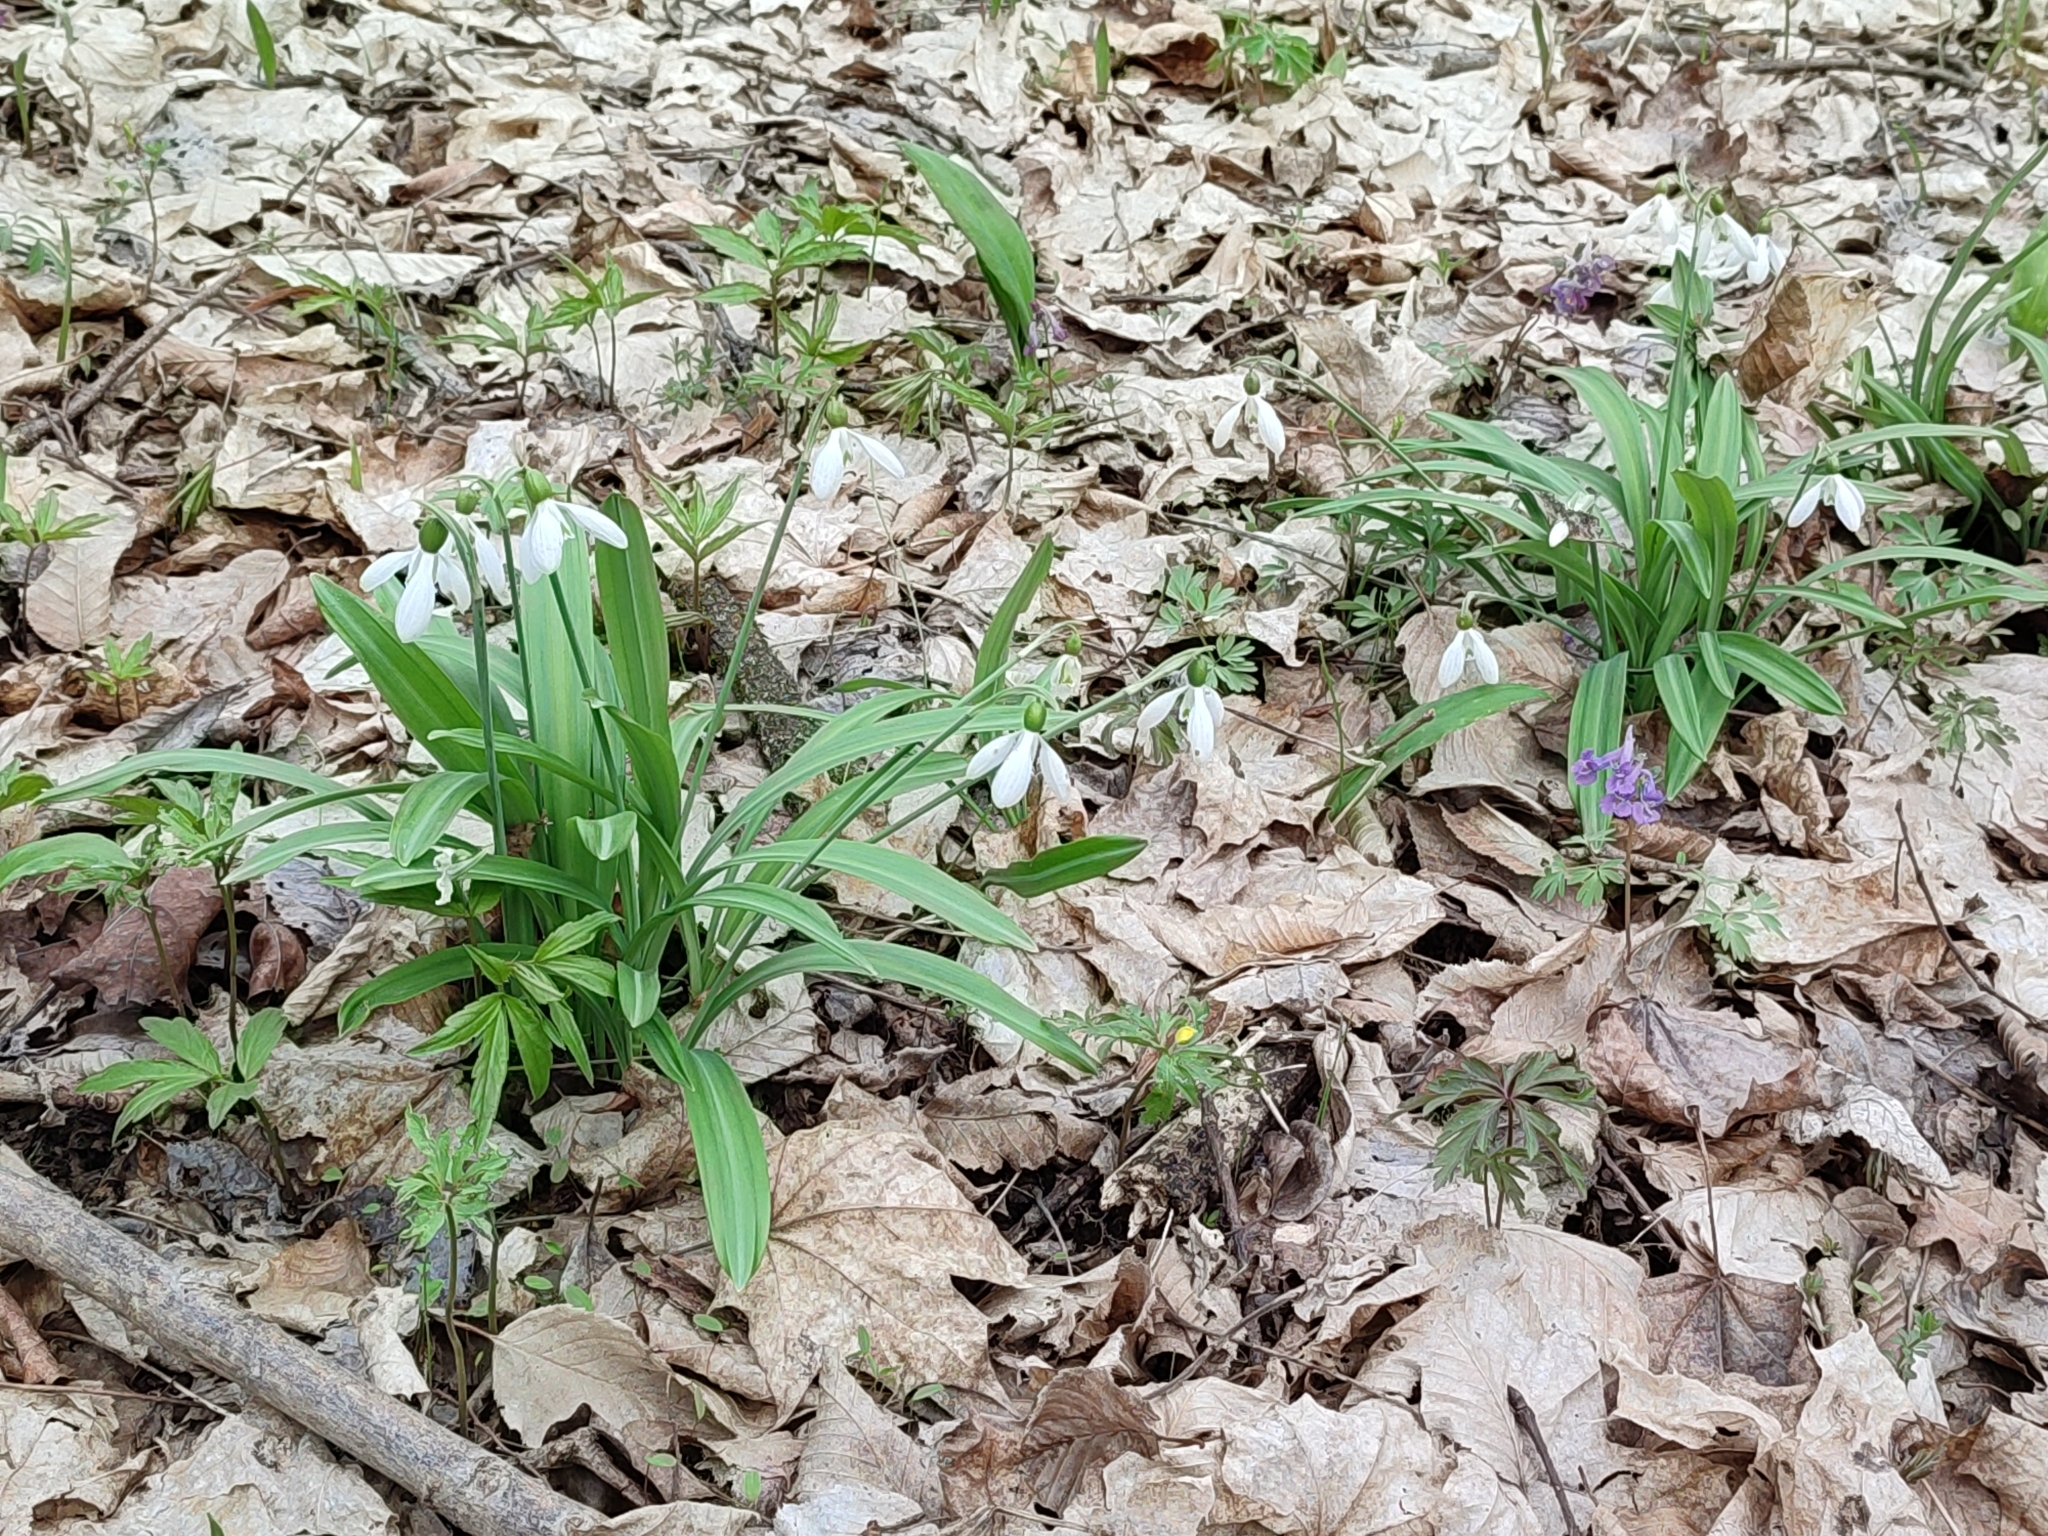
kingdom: Plantae
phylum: Tracheophyta
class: Liliopsida
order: Asparagales
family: Amaryllidaceae
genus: Galanthus
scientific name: Galanthus plicatus
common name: Pleated snowdrop
